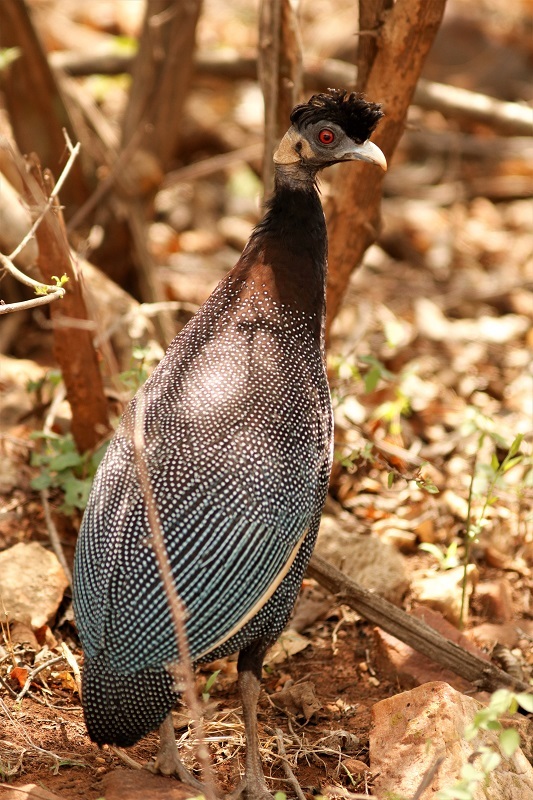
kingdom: Animalia
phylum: Chordata
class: Aves
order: Galliformes
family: Numididae
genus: Guttera
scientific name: Guttera pucherani
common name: Crested guineafowl
